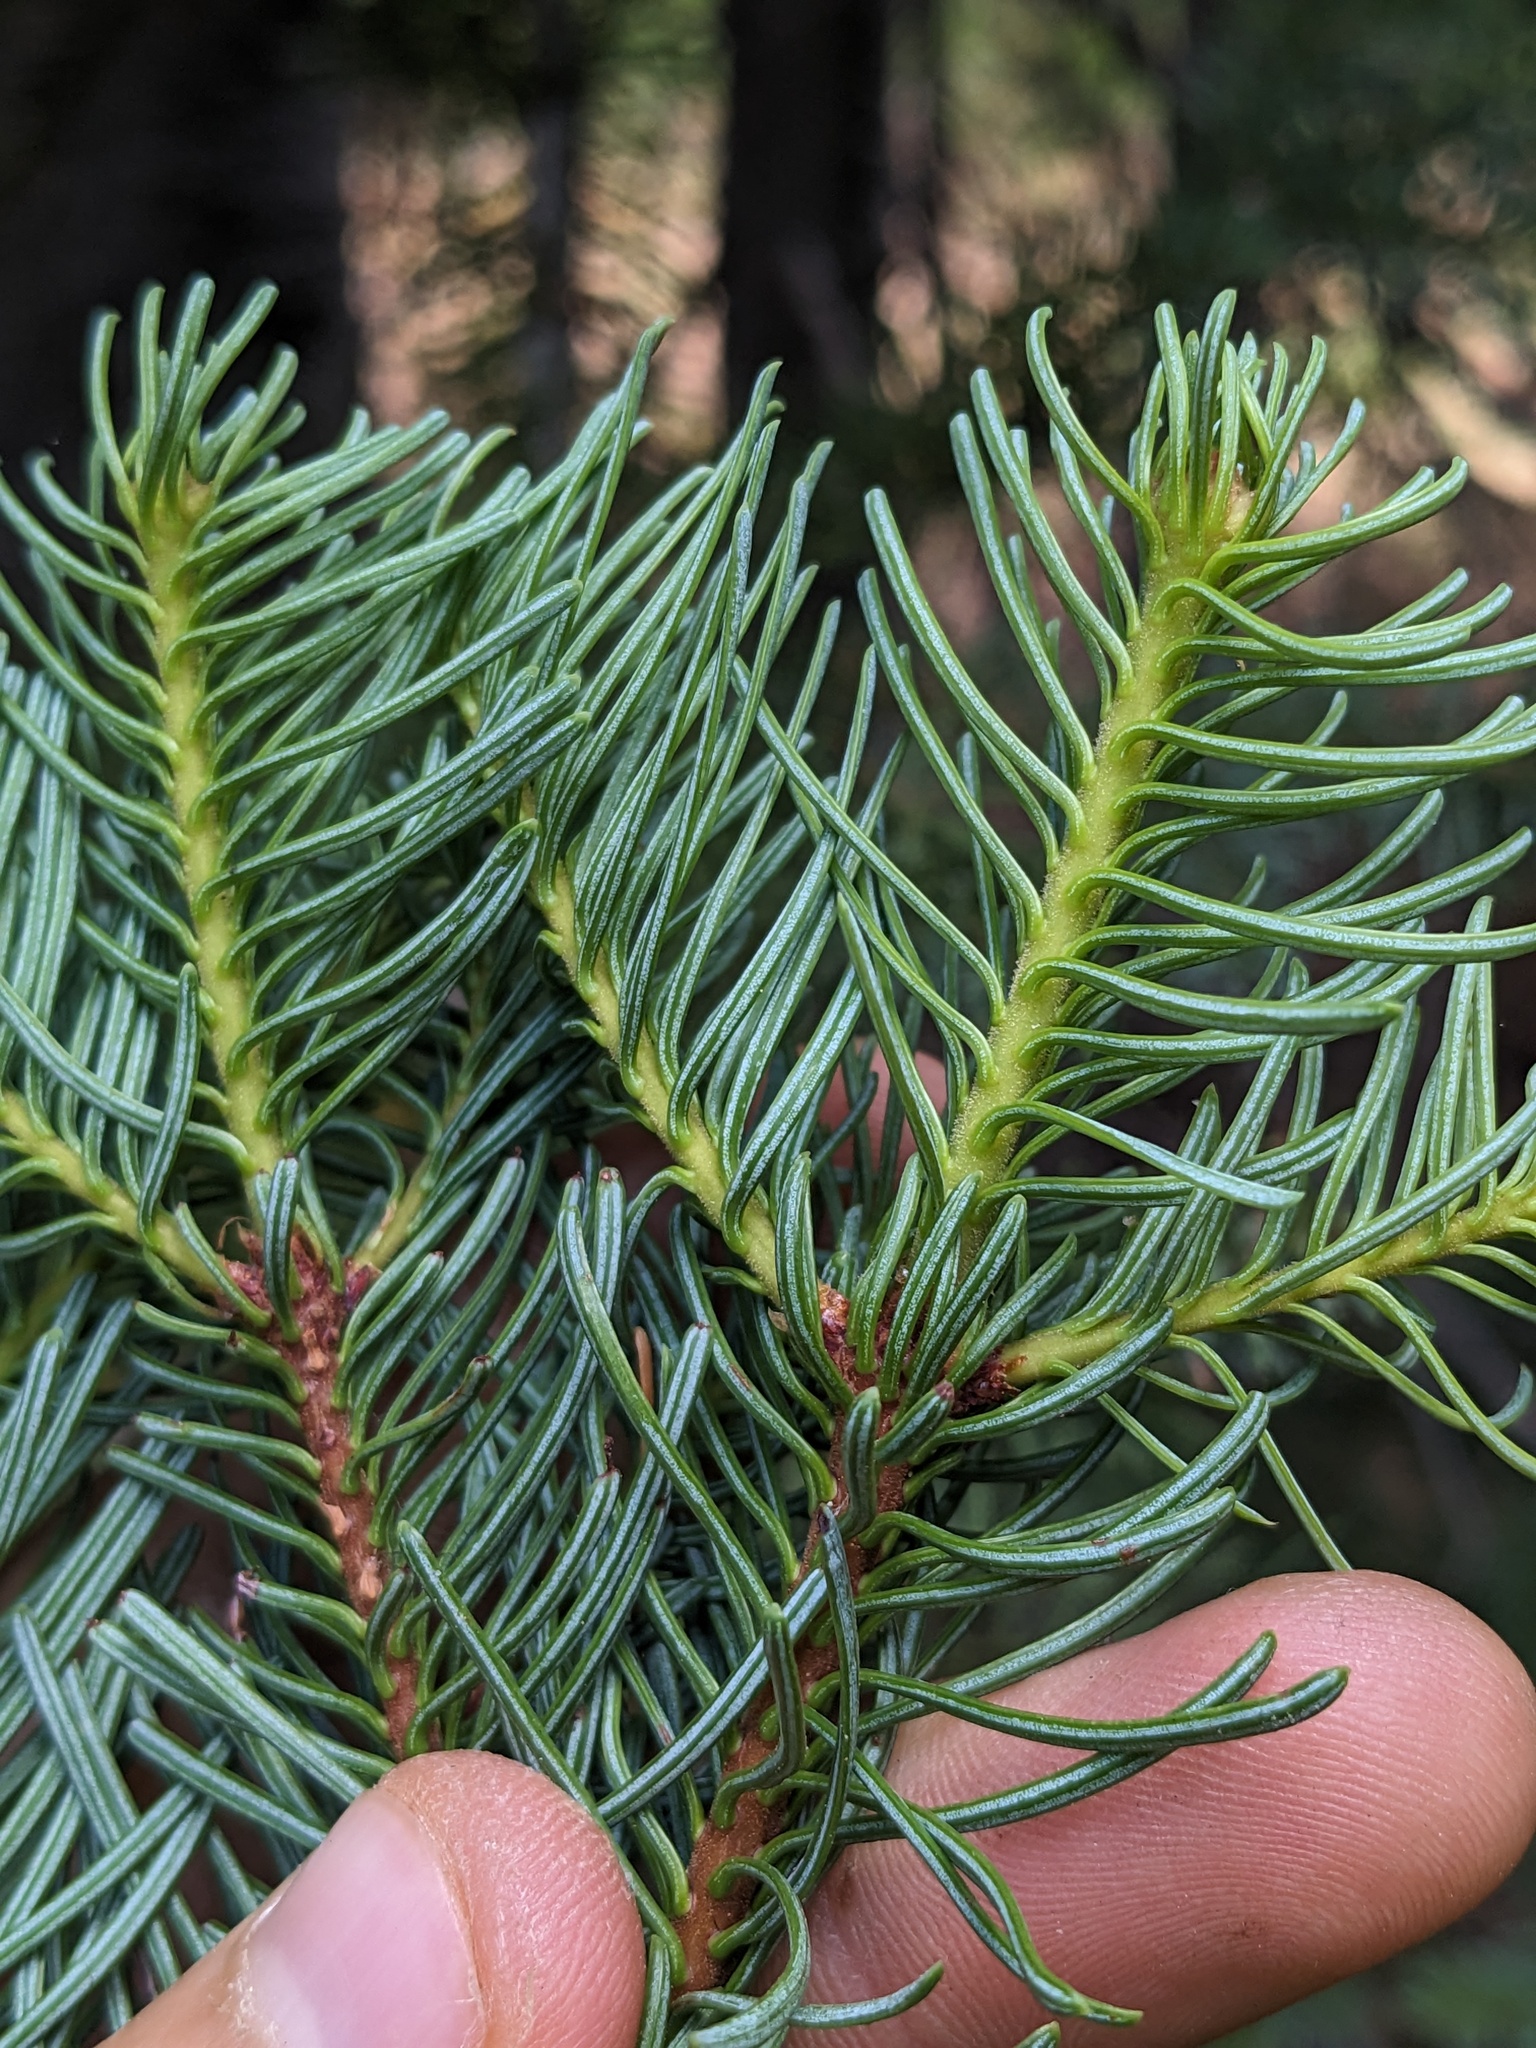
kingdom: Plantae
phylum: Tracheophyta
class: Pinopsida
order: Pinales
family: Pinaceae
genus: Abies
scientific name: Abies magnifica bis
